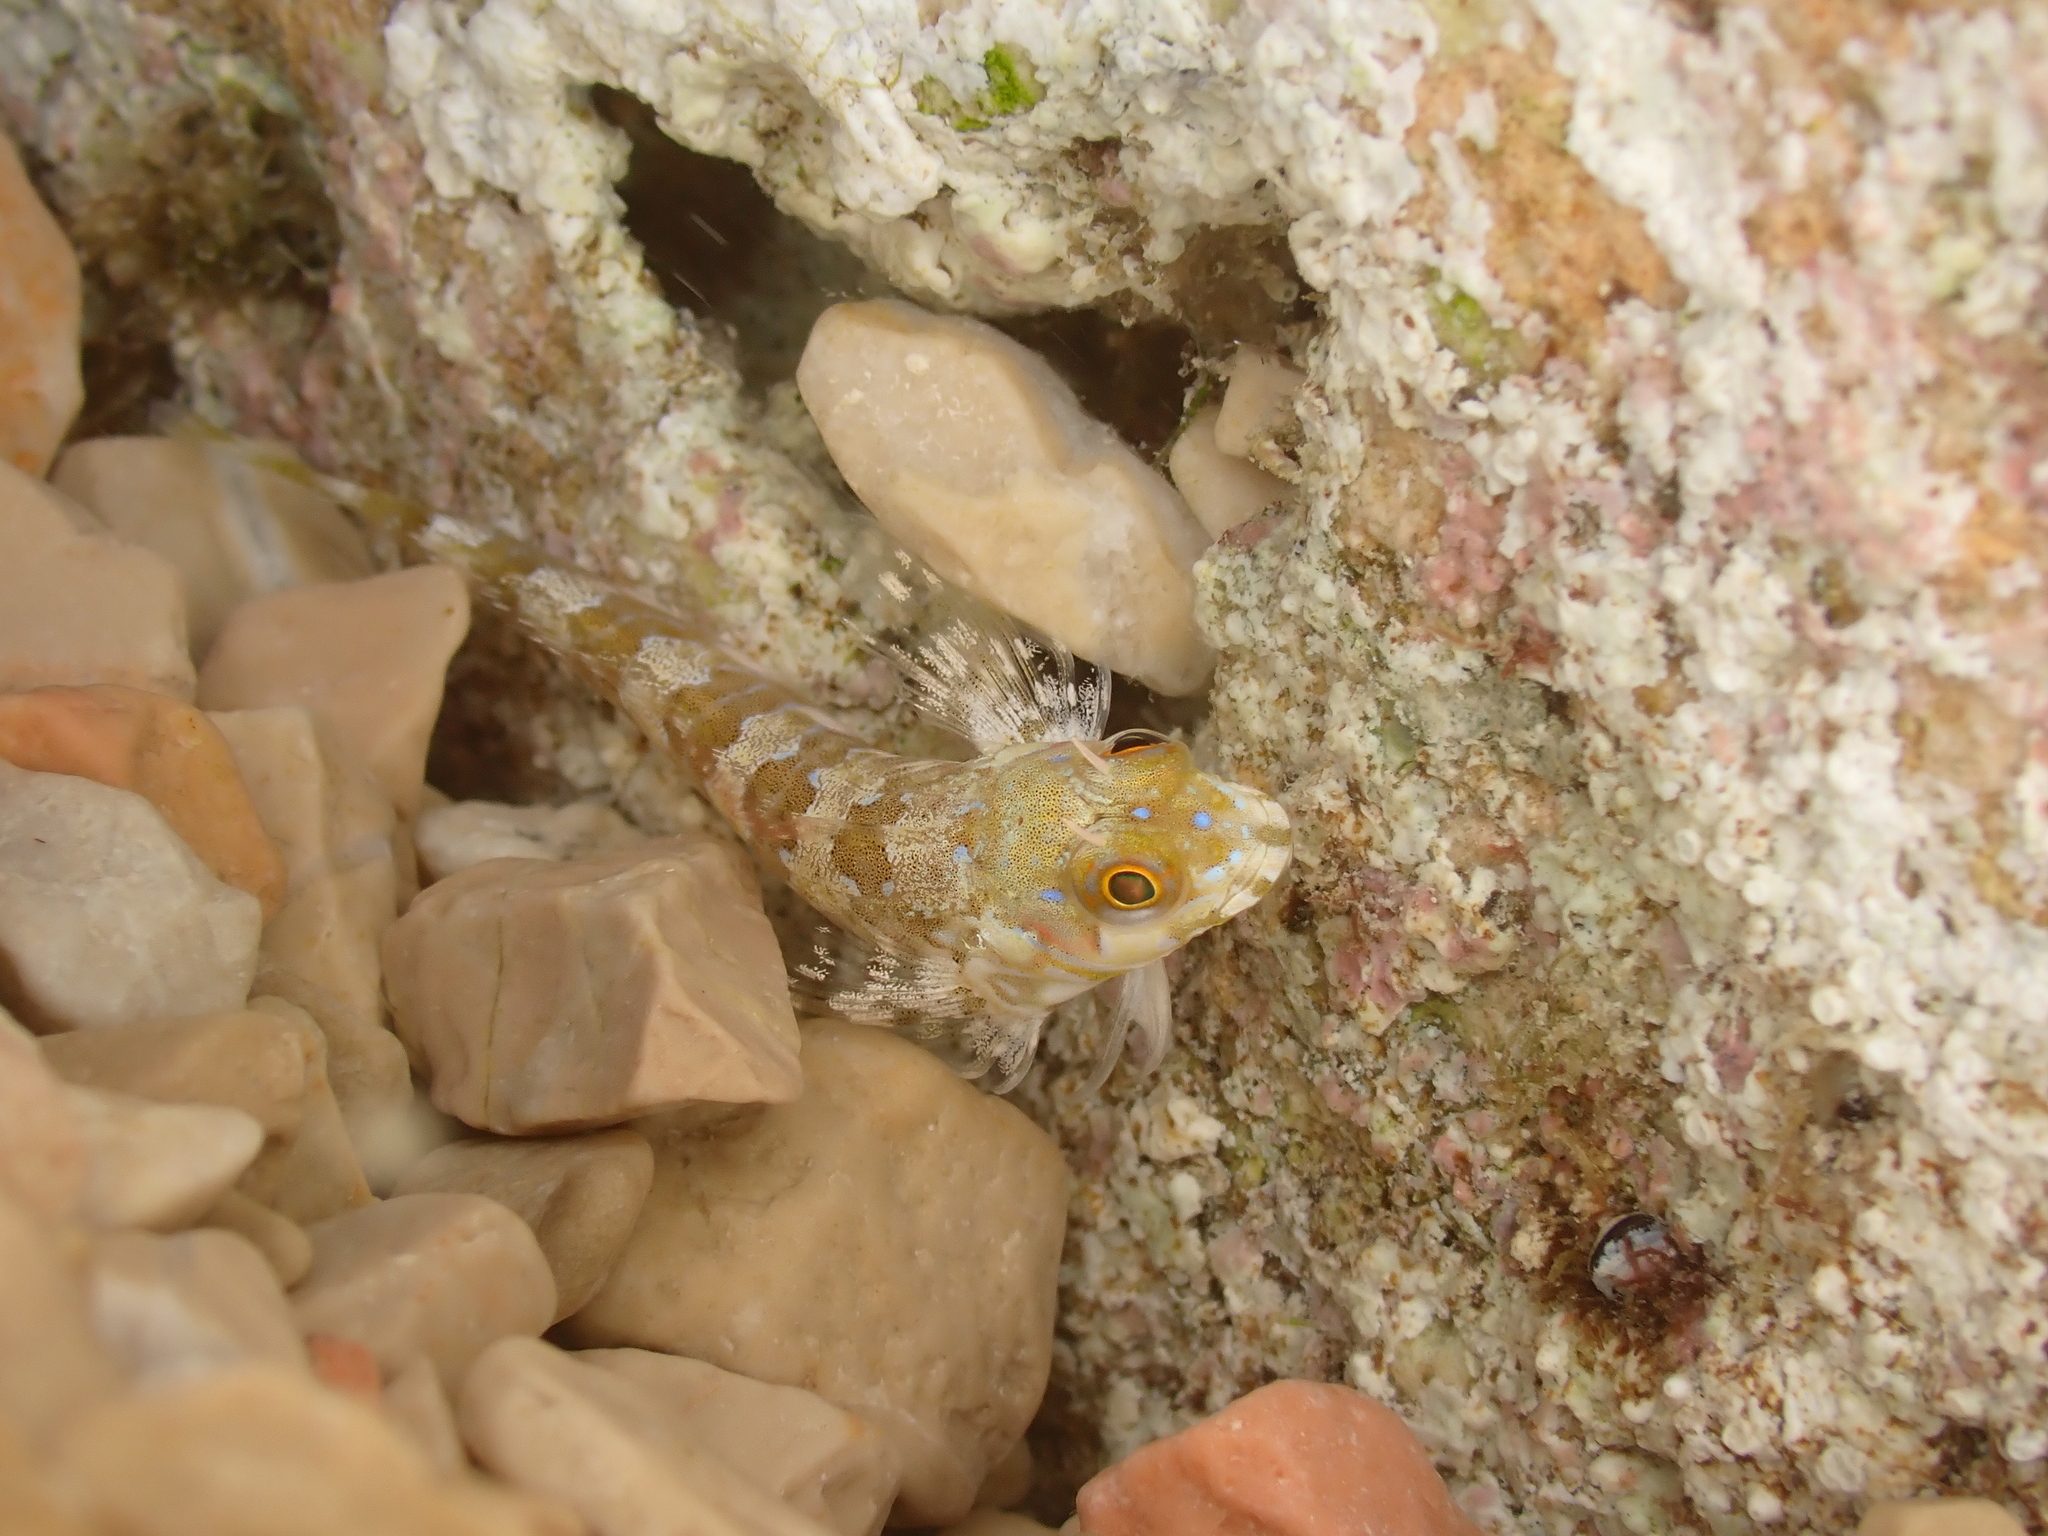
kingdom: Animalia
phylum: Chordata
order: Perciformes
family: Blenniidae
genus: Aidablennius
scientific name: Aidablennius sphynx
